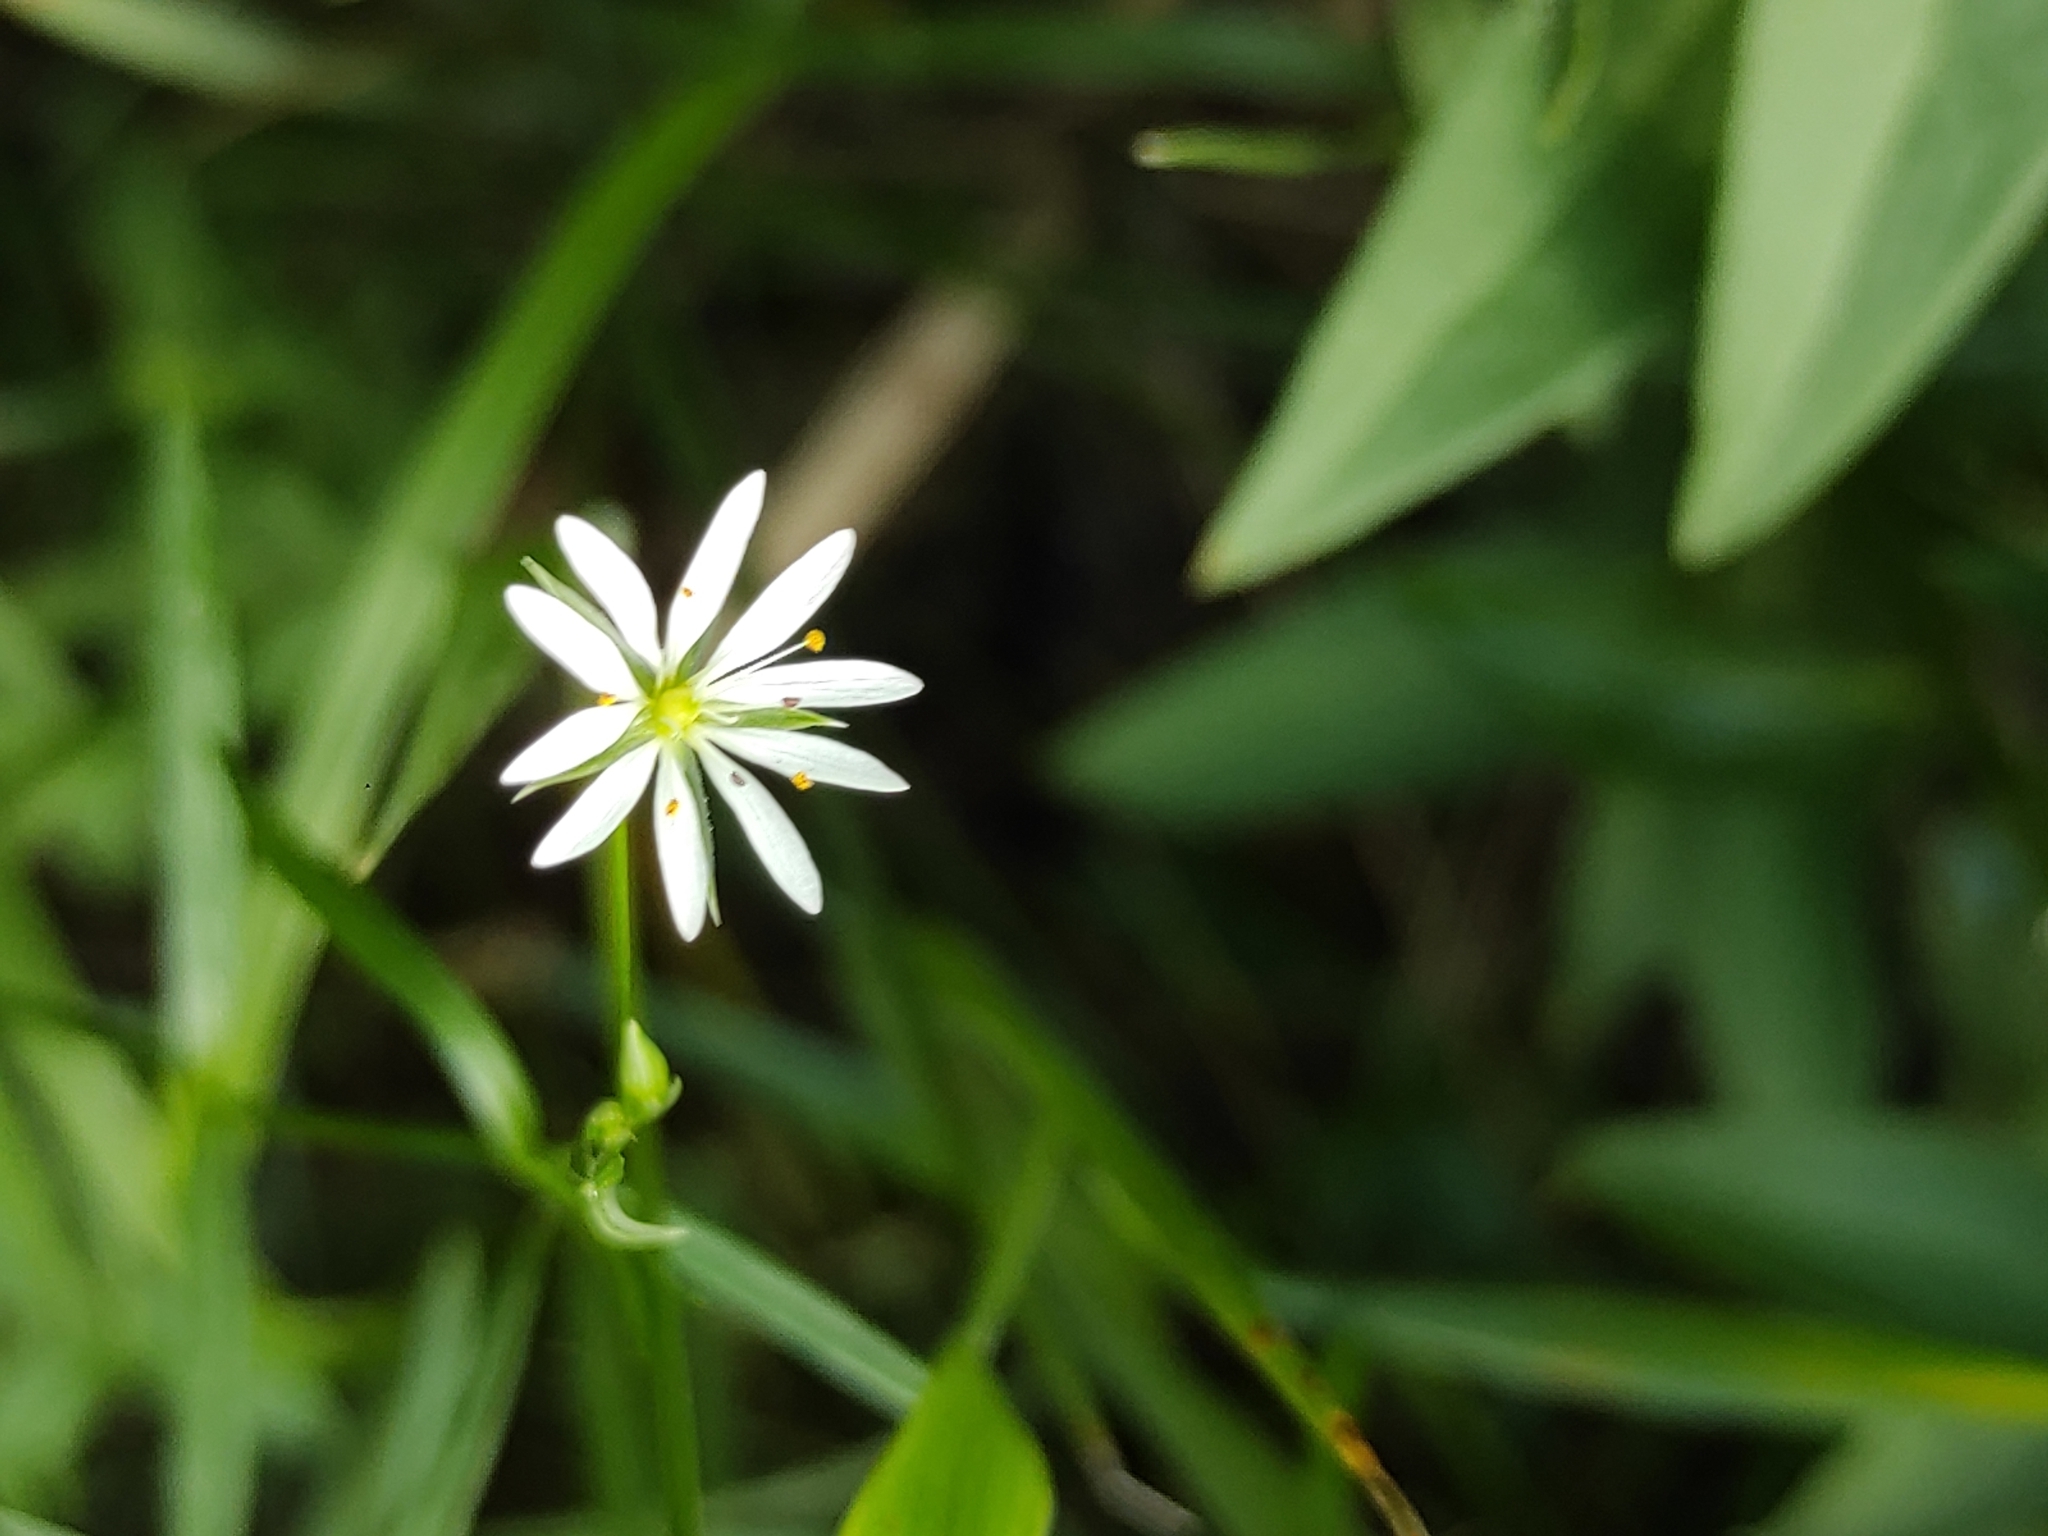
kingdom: Plantae
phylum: Tracheophyta
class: Magnoliopsida
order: Caryophyllales
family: Caryophyllaceae
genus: Stellaria
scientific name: Stellaria graminea
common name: Grass-like starwort
